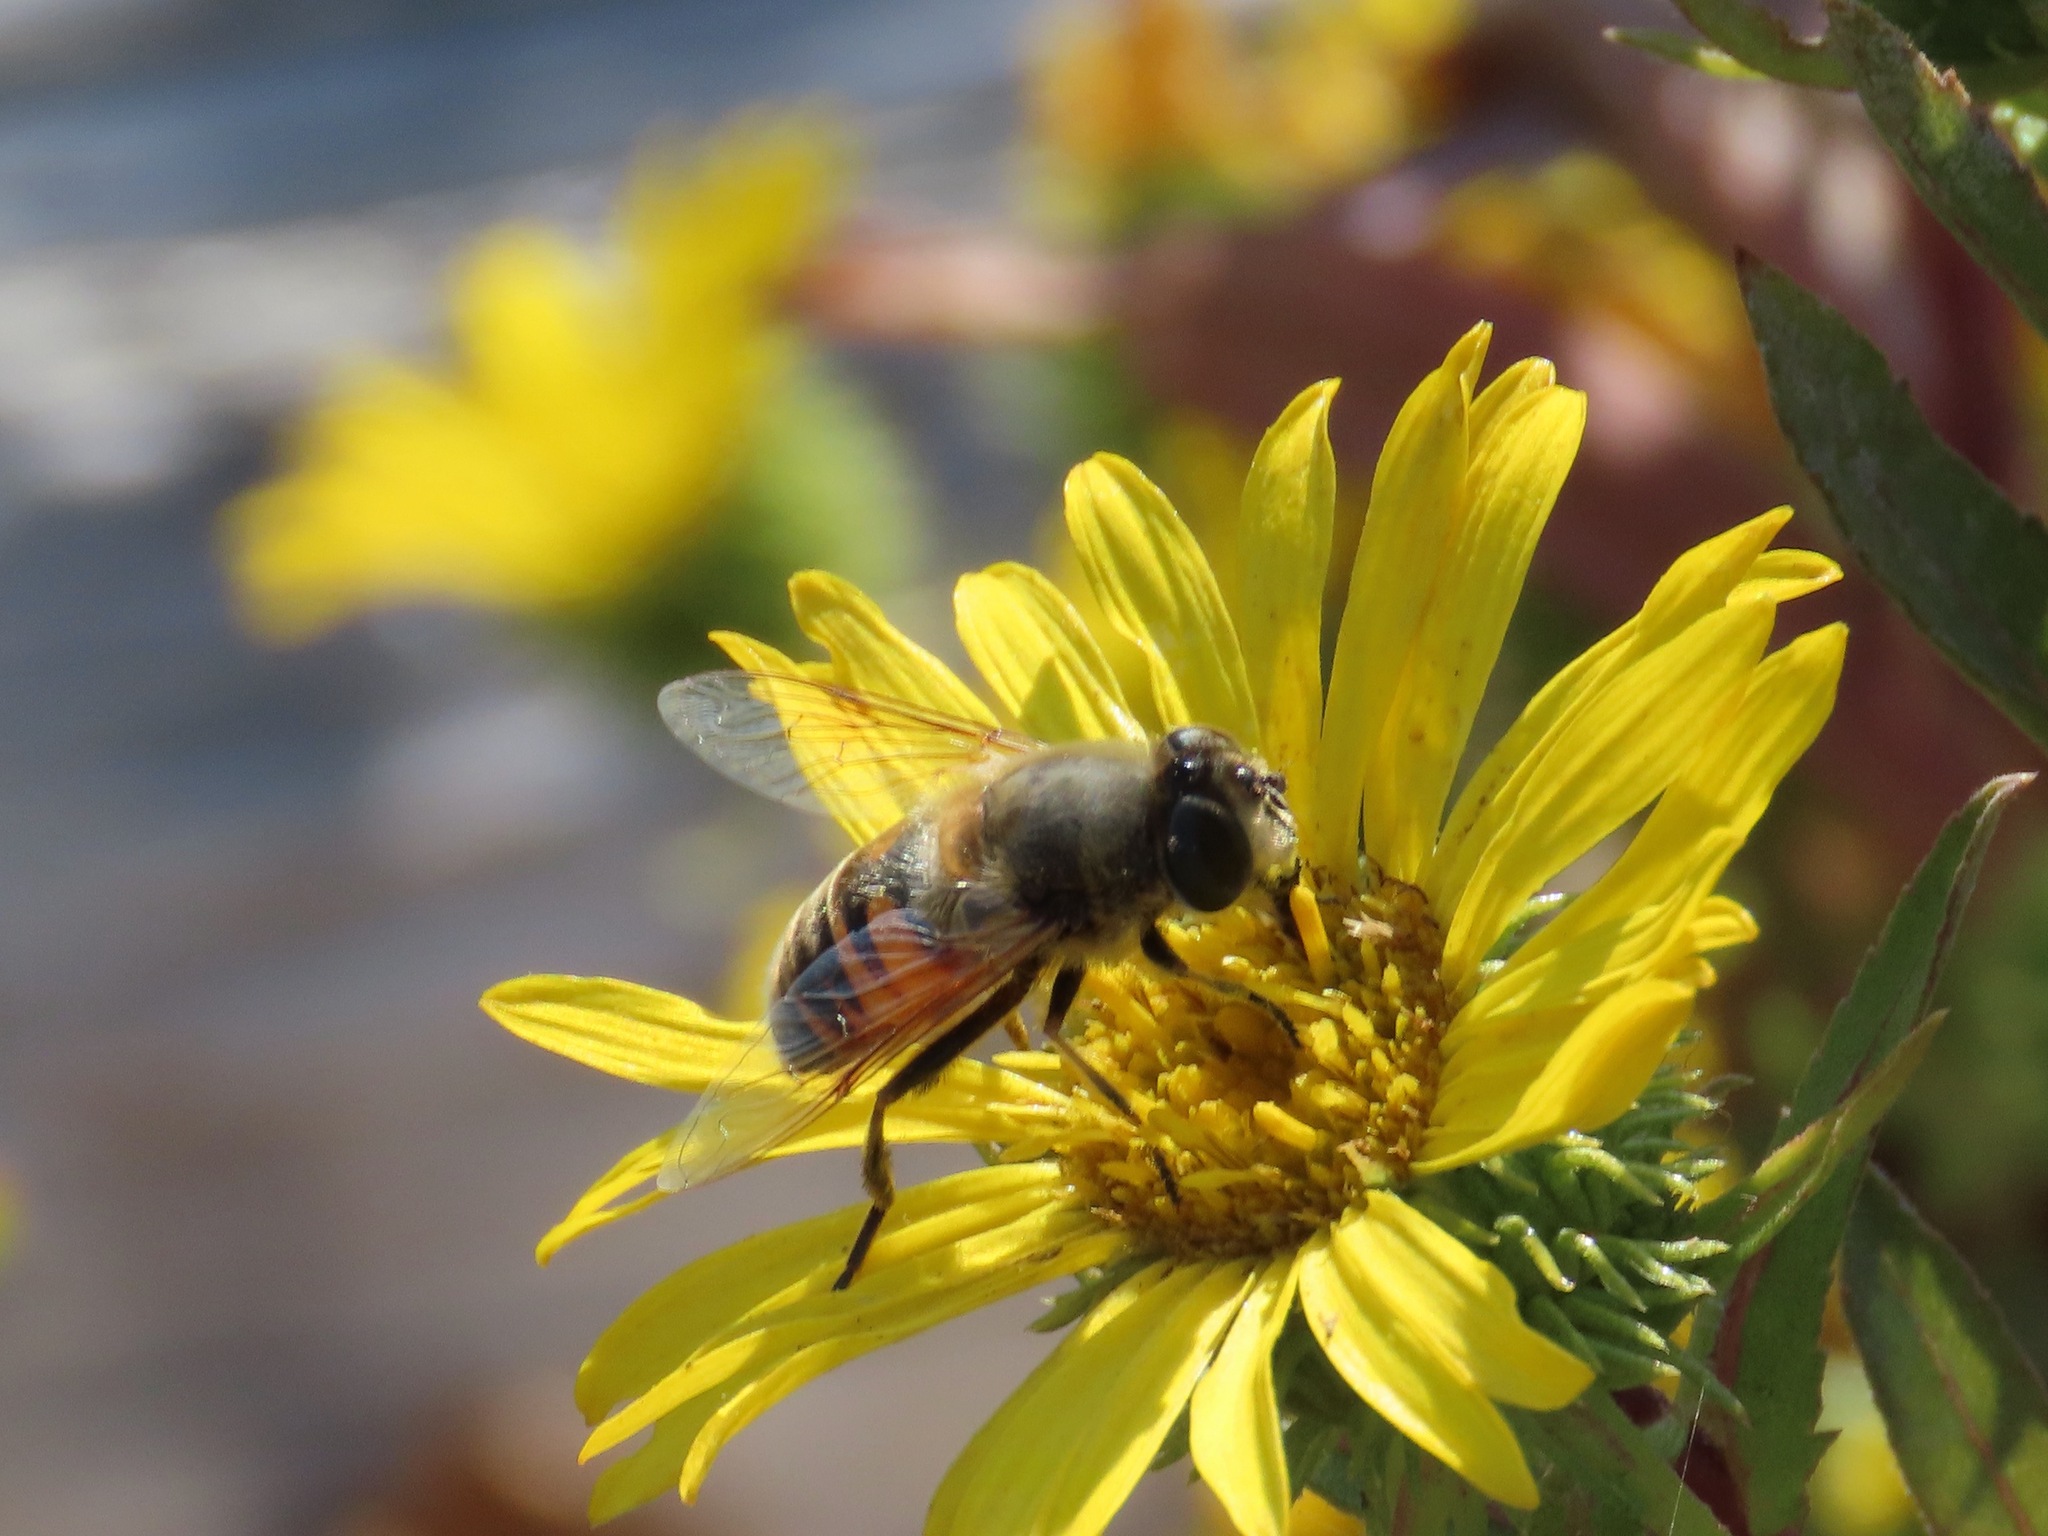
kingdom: Animalia
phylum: Arthropoda
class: Insecta
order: Diptera
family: Syrphidae
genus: Eristalis
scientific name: Eristalis tenax
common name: Drone fly
